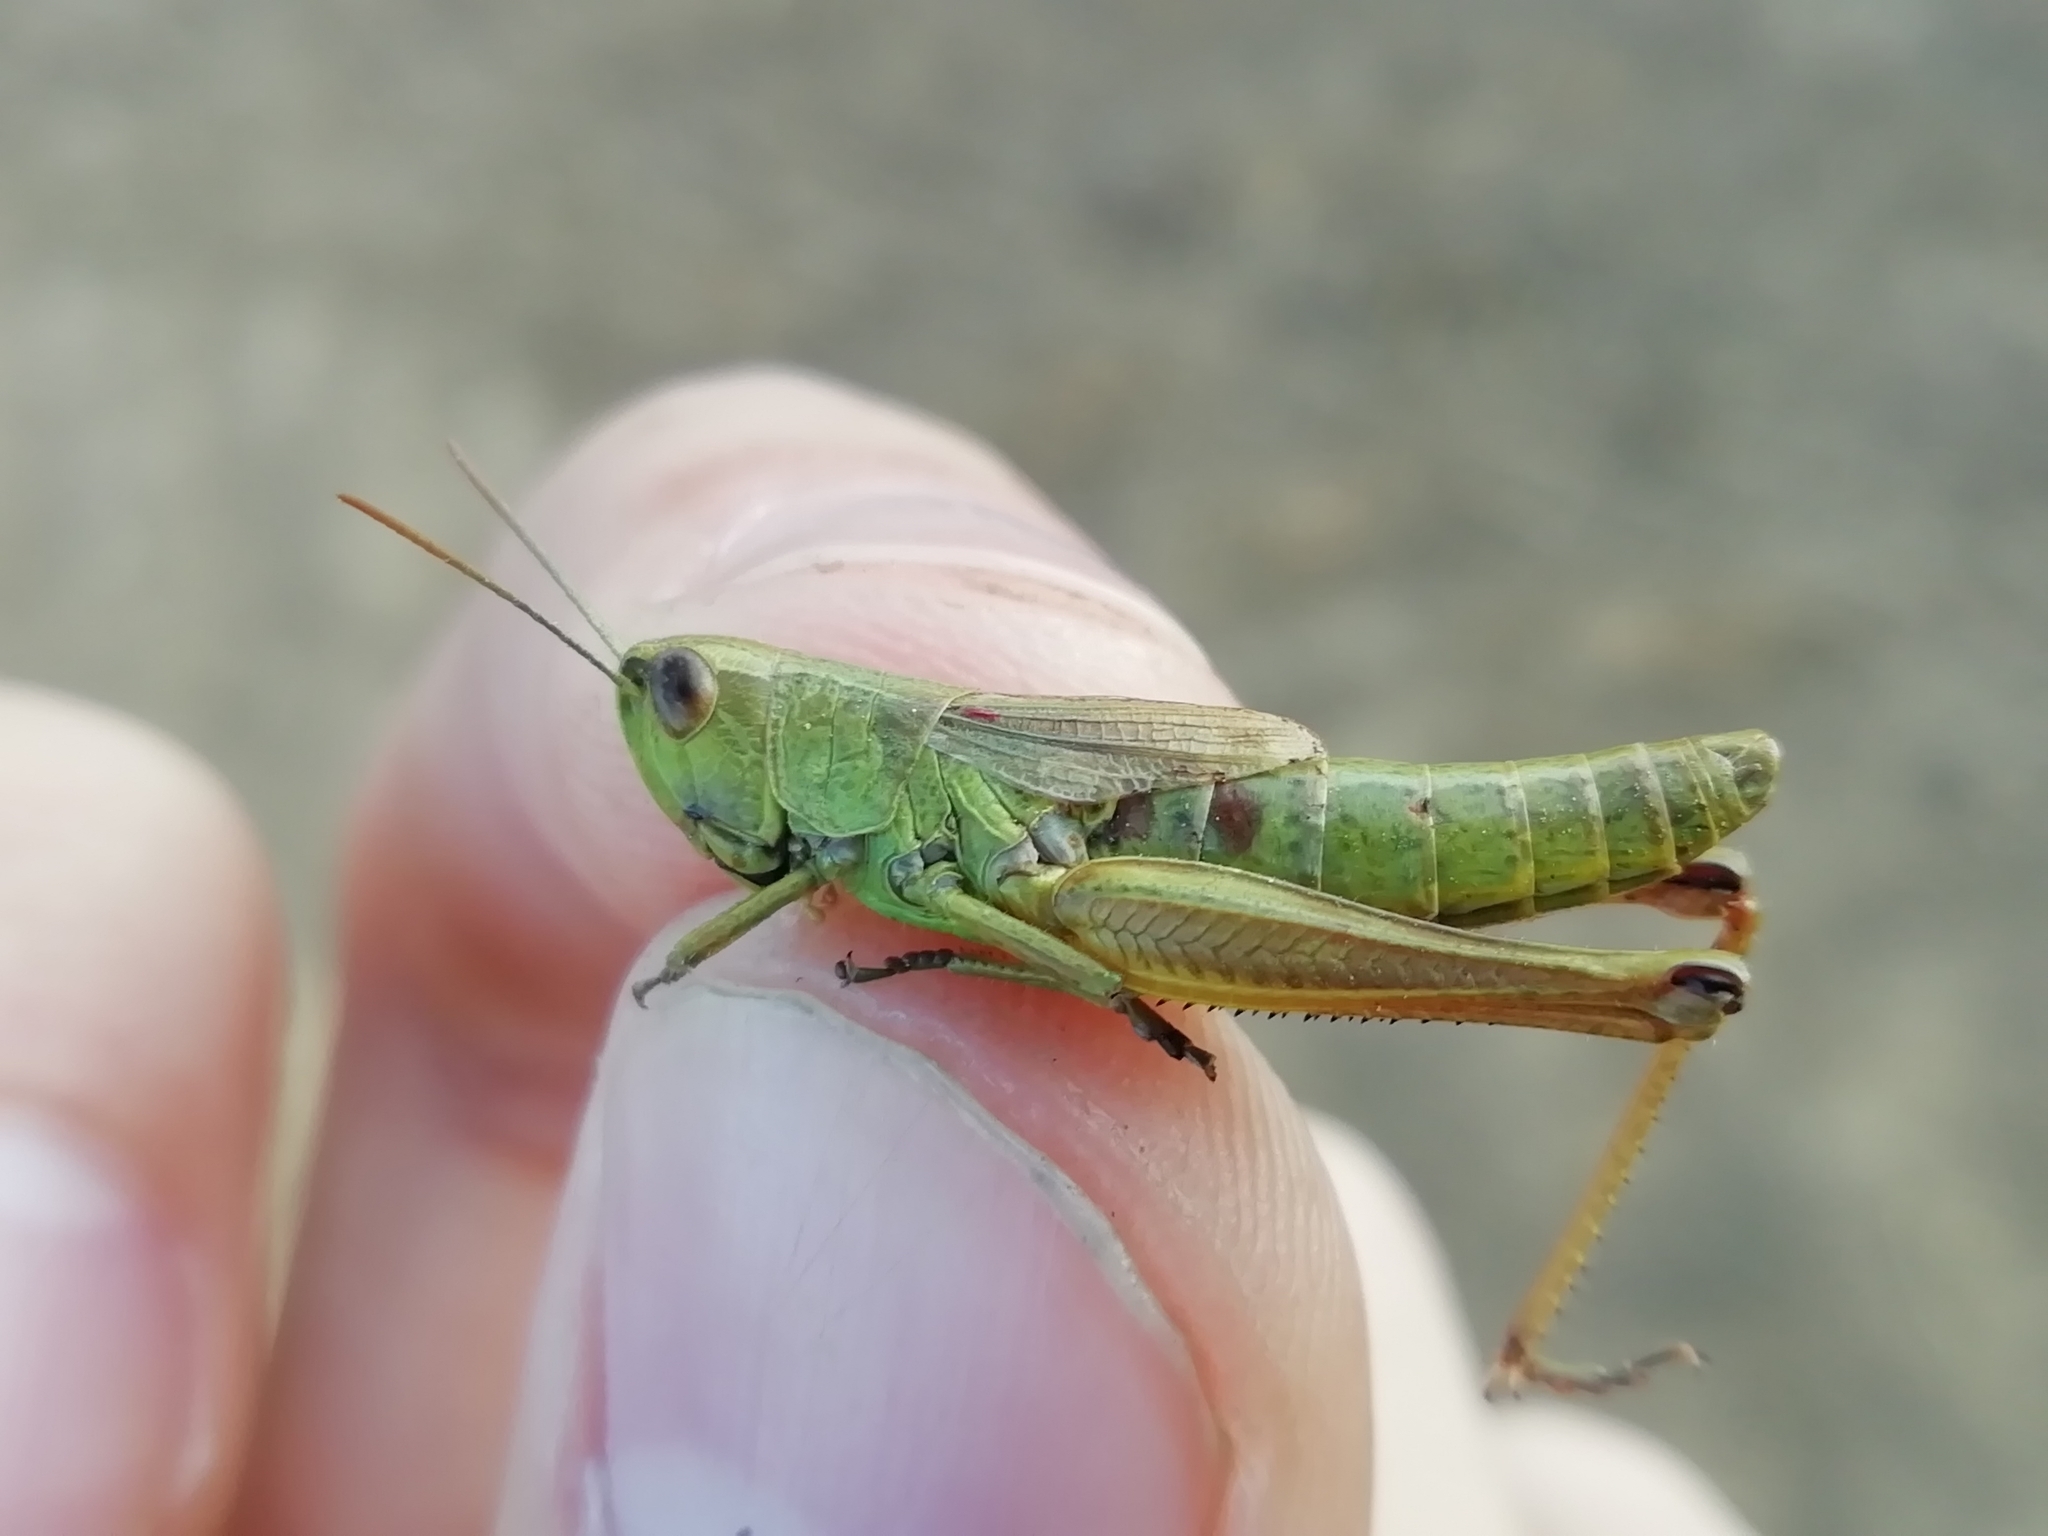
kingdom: Animalia
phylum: Arthropoda
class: Insecta
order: Orthoptera
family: Acrididae
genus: Pseudochorthippus
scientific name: Pseudochorthippus parallelus
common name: Meadow grasshopper
